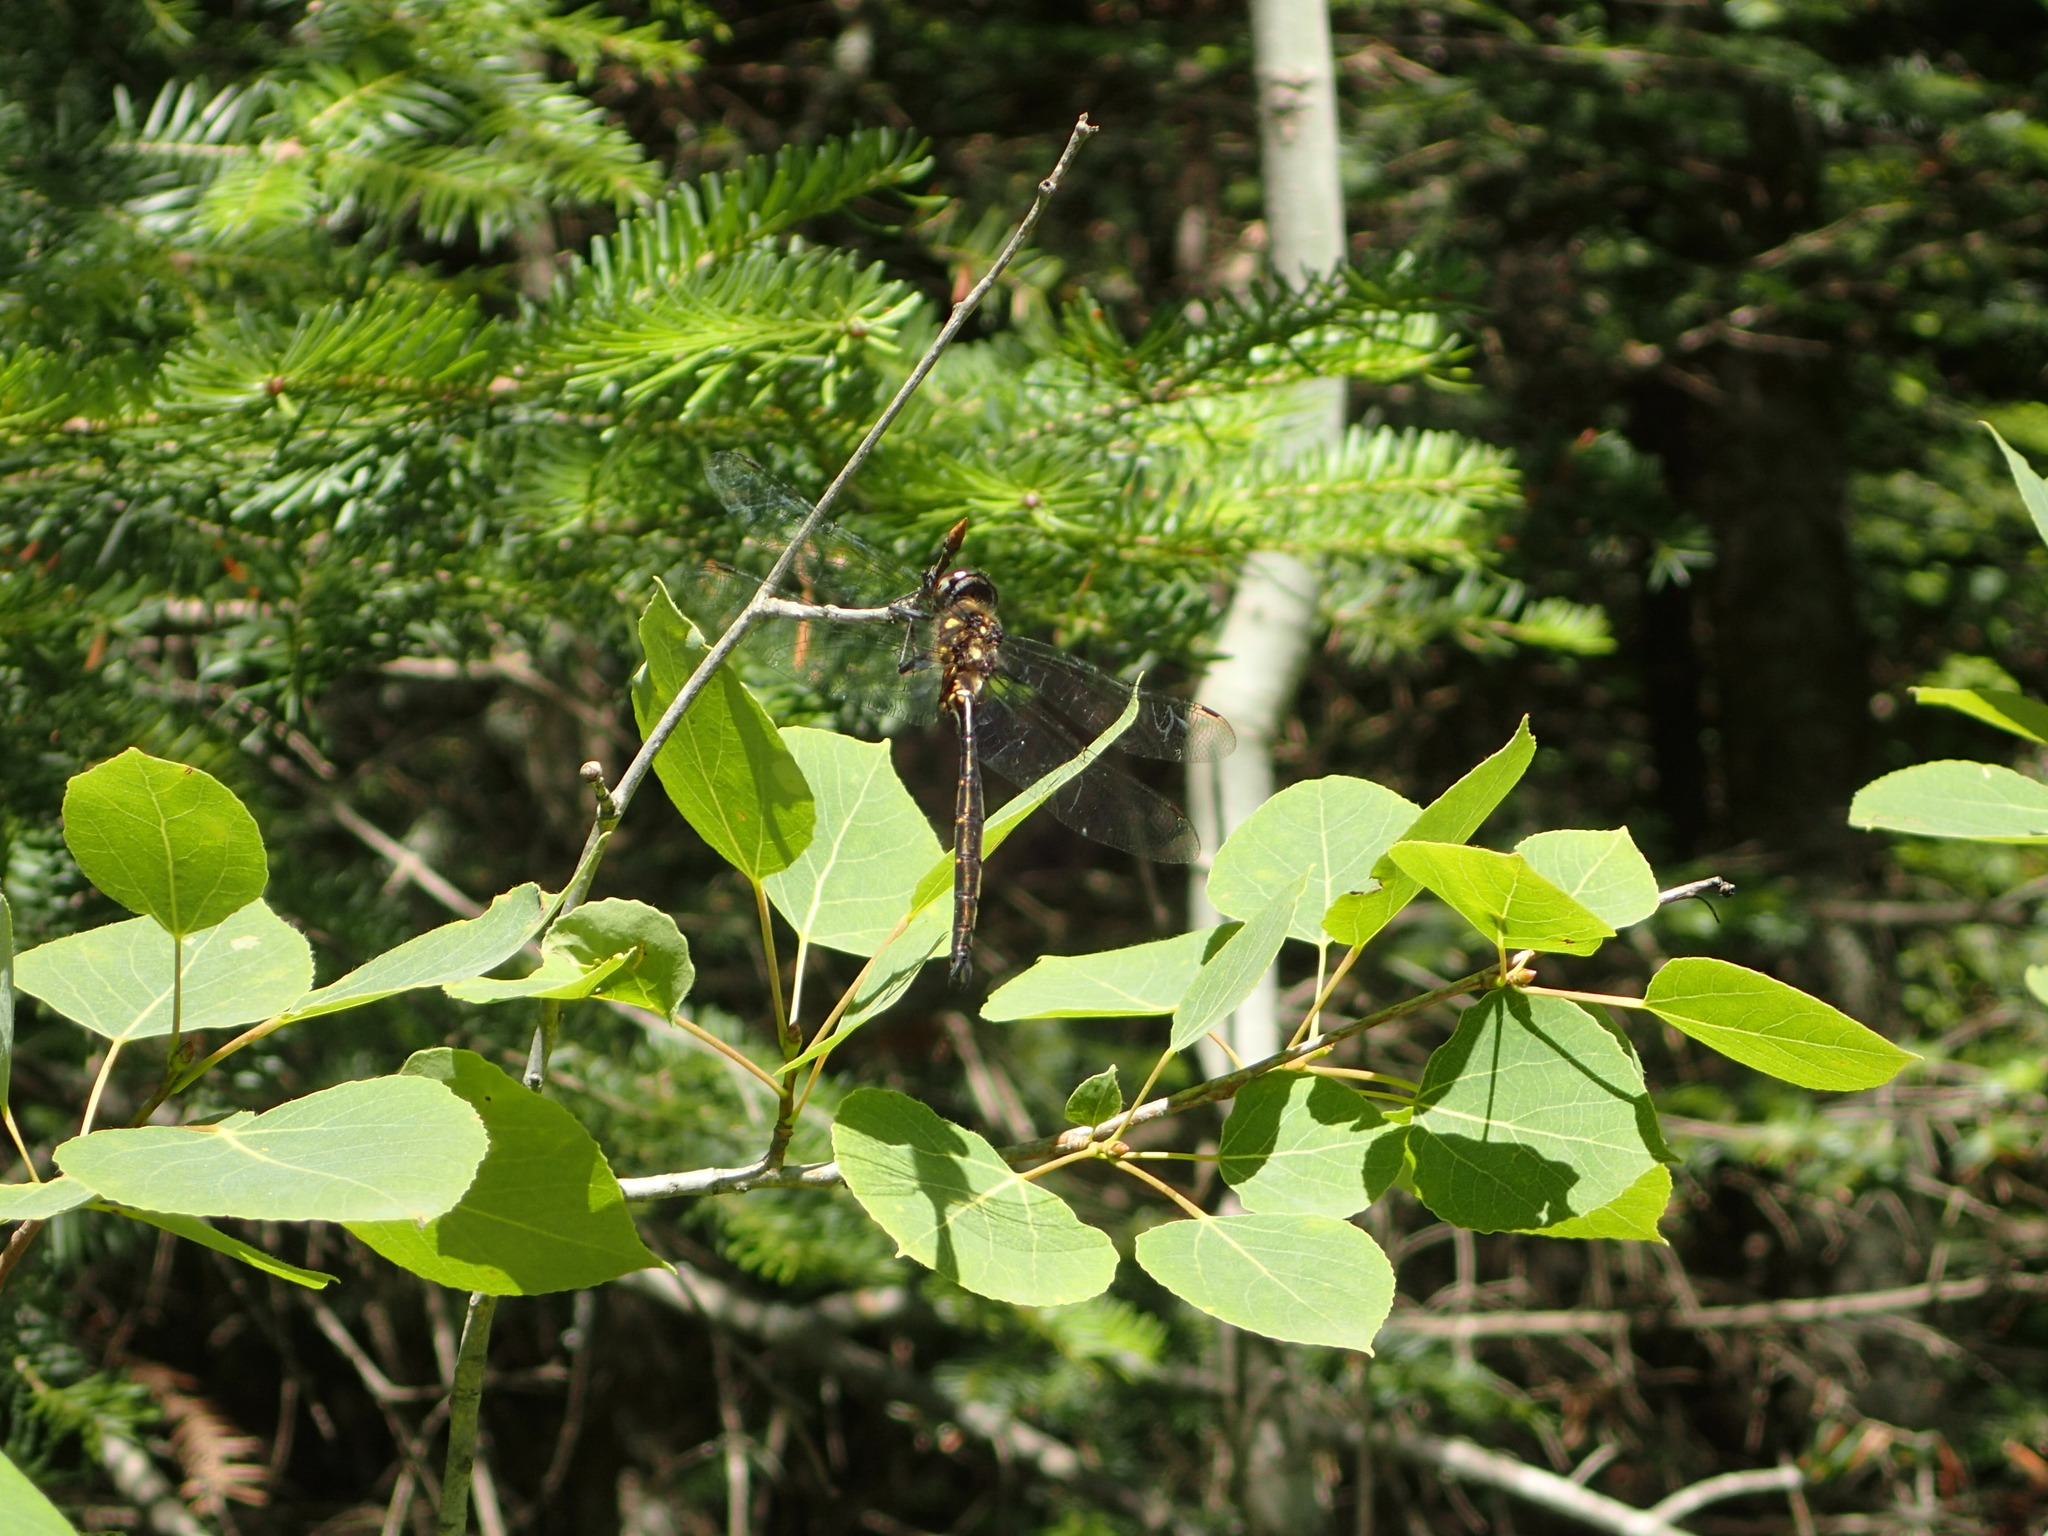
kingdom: Animalia
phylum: Arthropoda
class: Insecta
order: Odonata
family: Corduliidae
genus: Somatochlora
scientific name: Somatochlora forcipata
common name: Forcipate emerald
